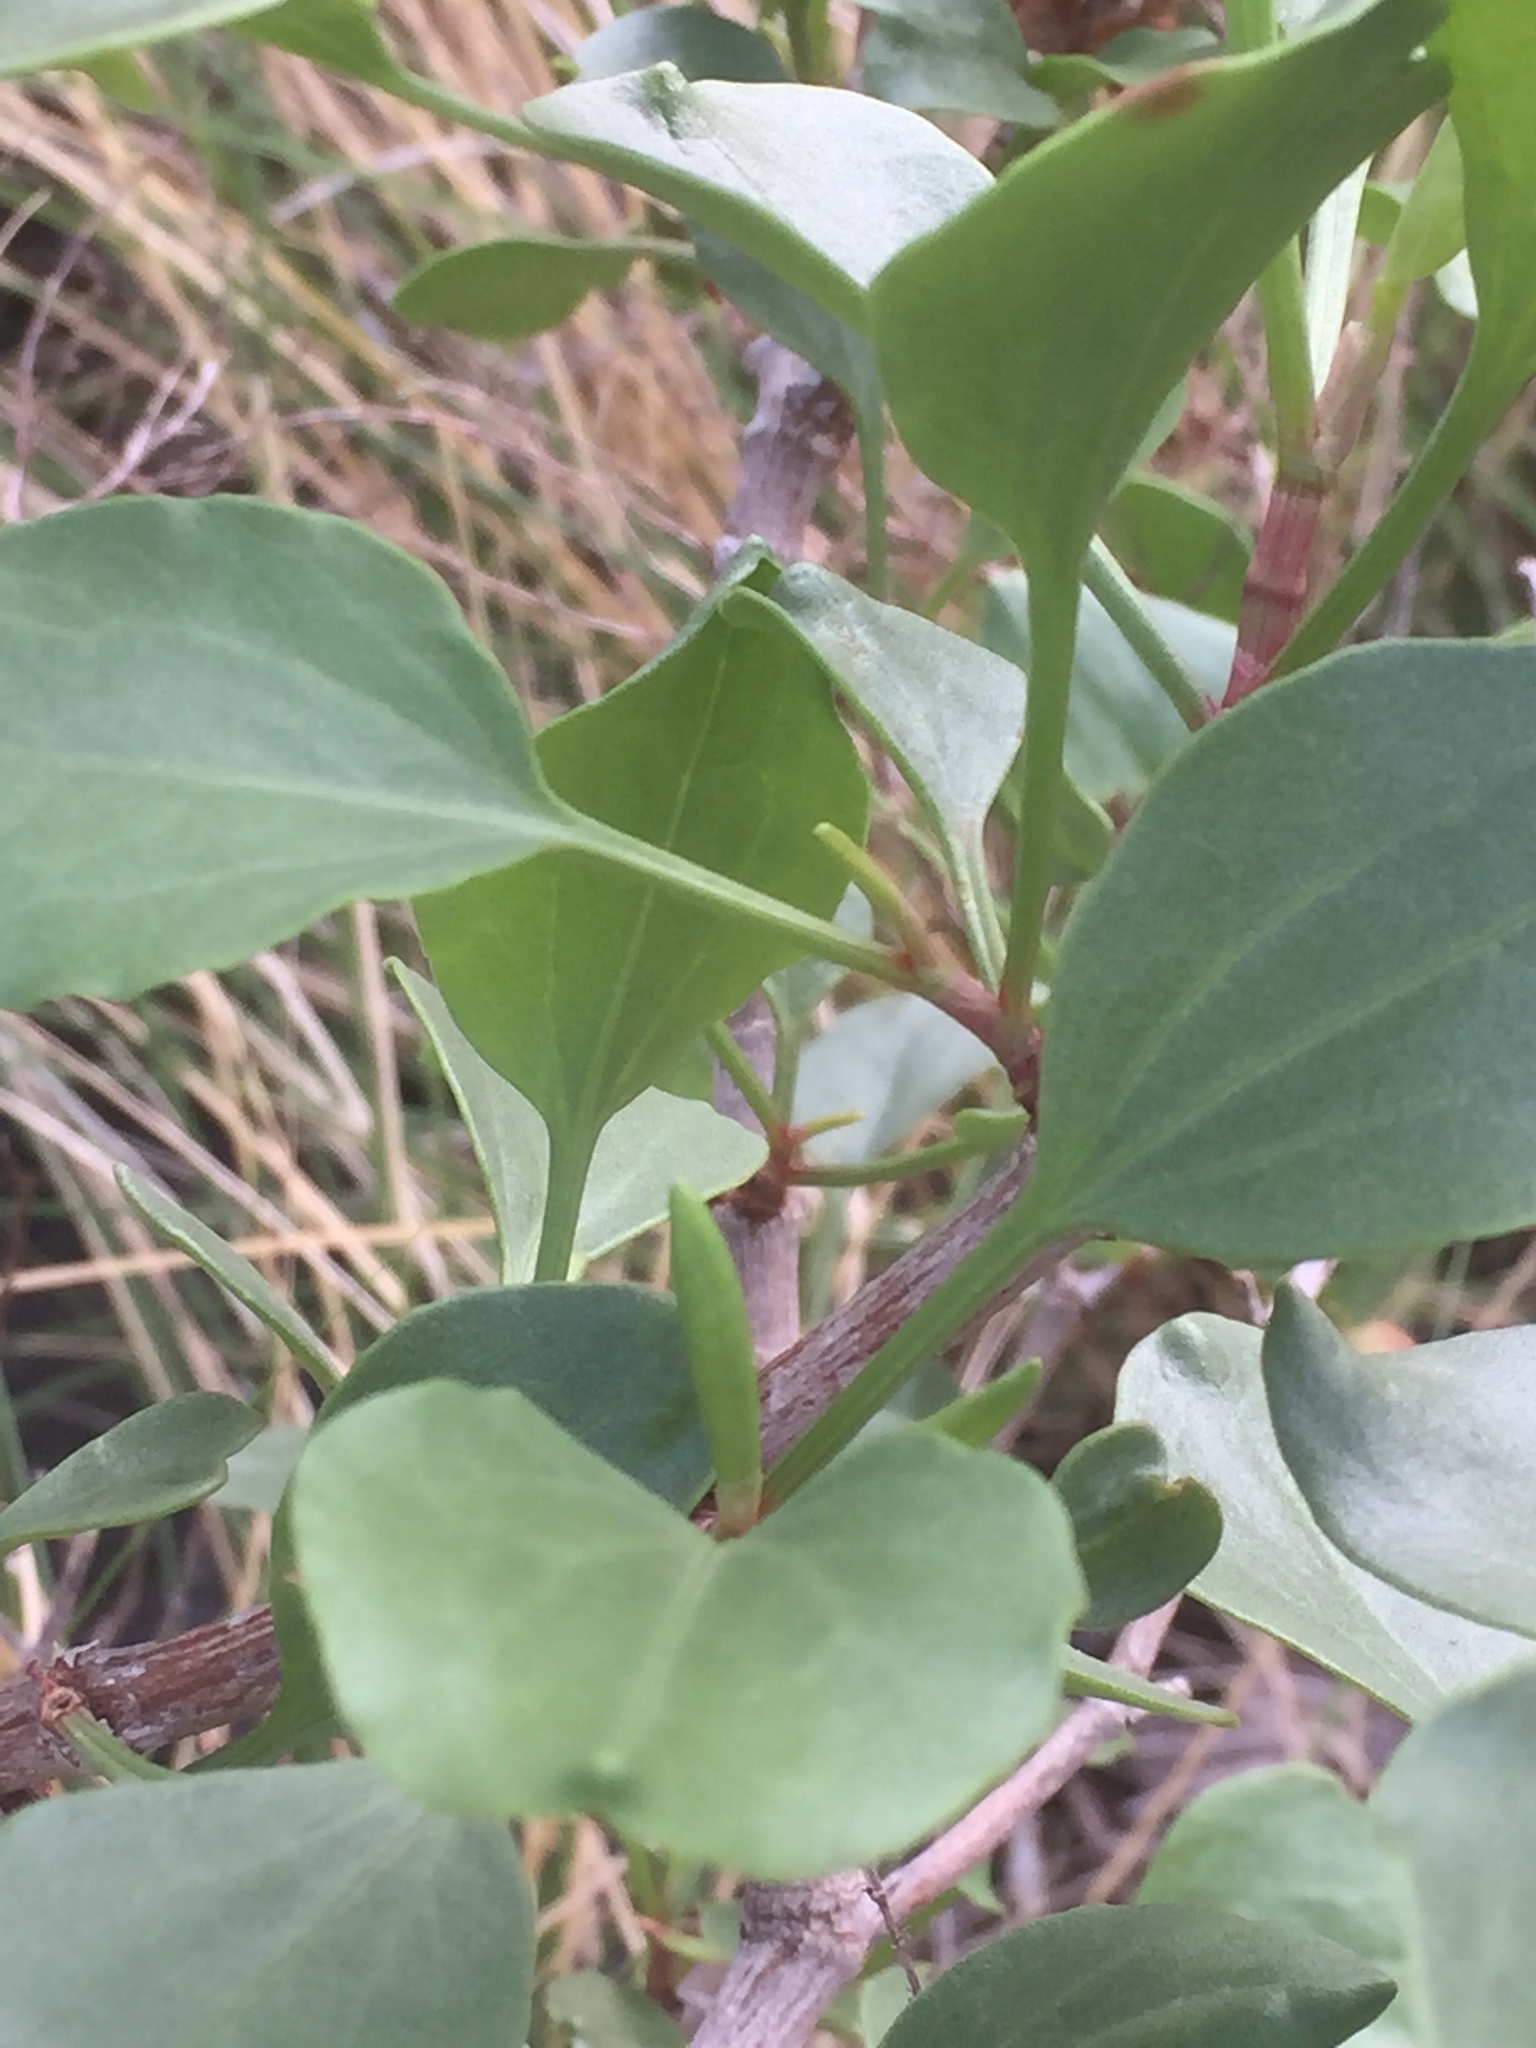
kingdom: Plantae
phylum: Tracheophyta
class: Magnoliopsida
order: Caryophyllales
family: Polygonaceae
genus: Rumex
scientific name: Rumex lunaria
